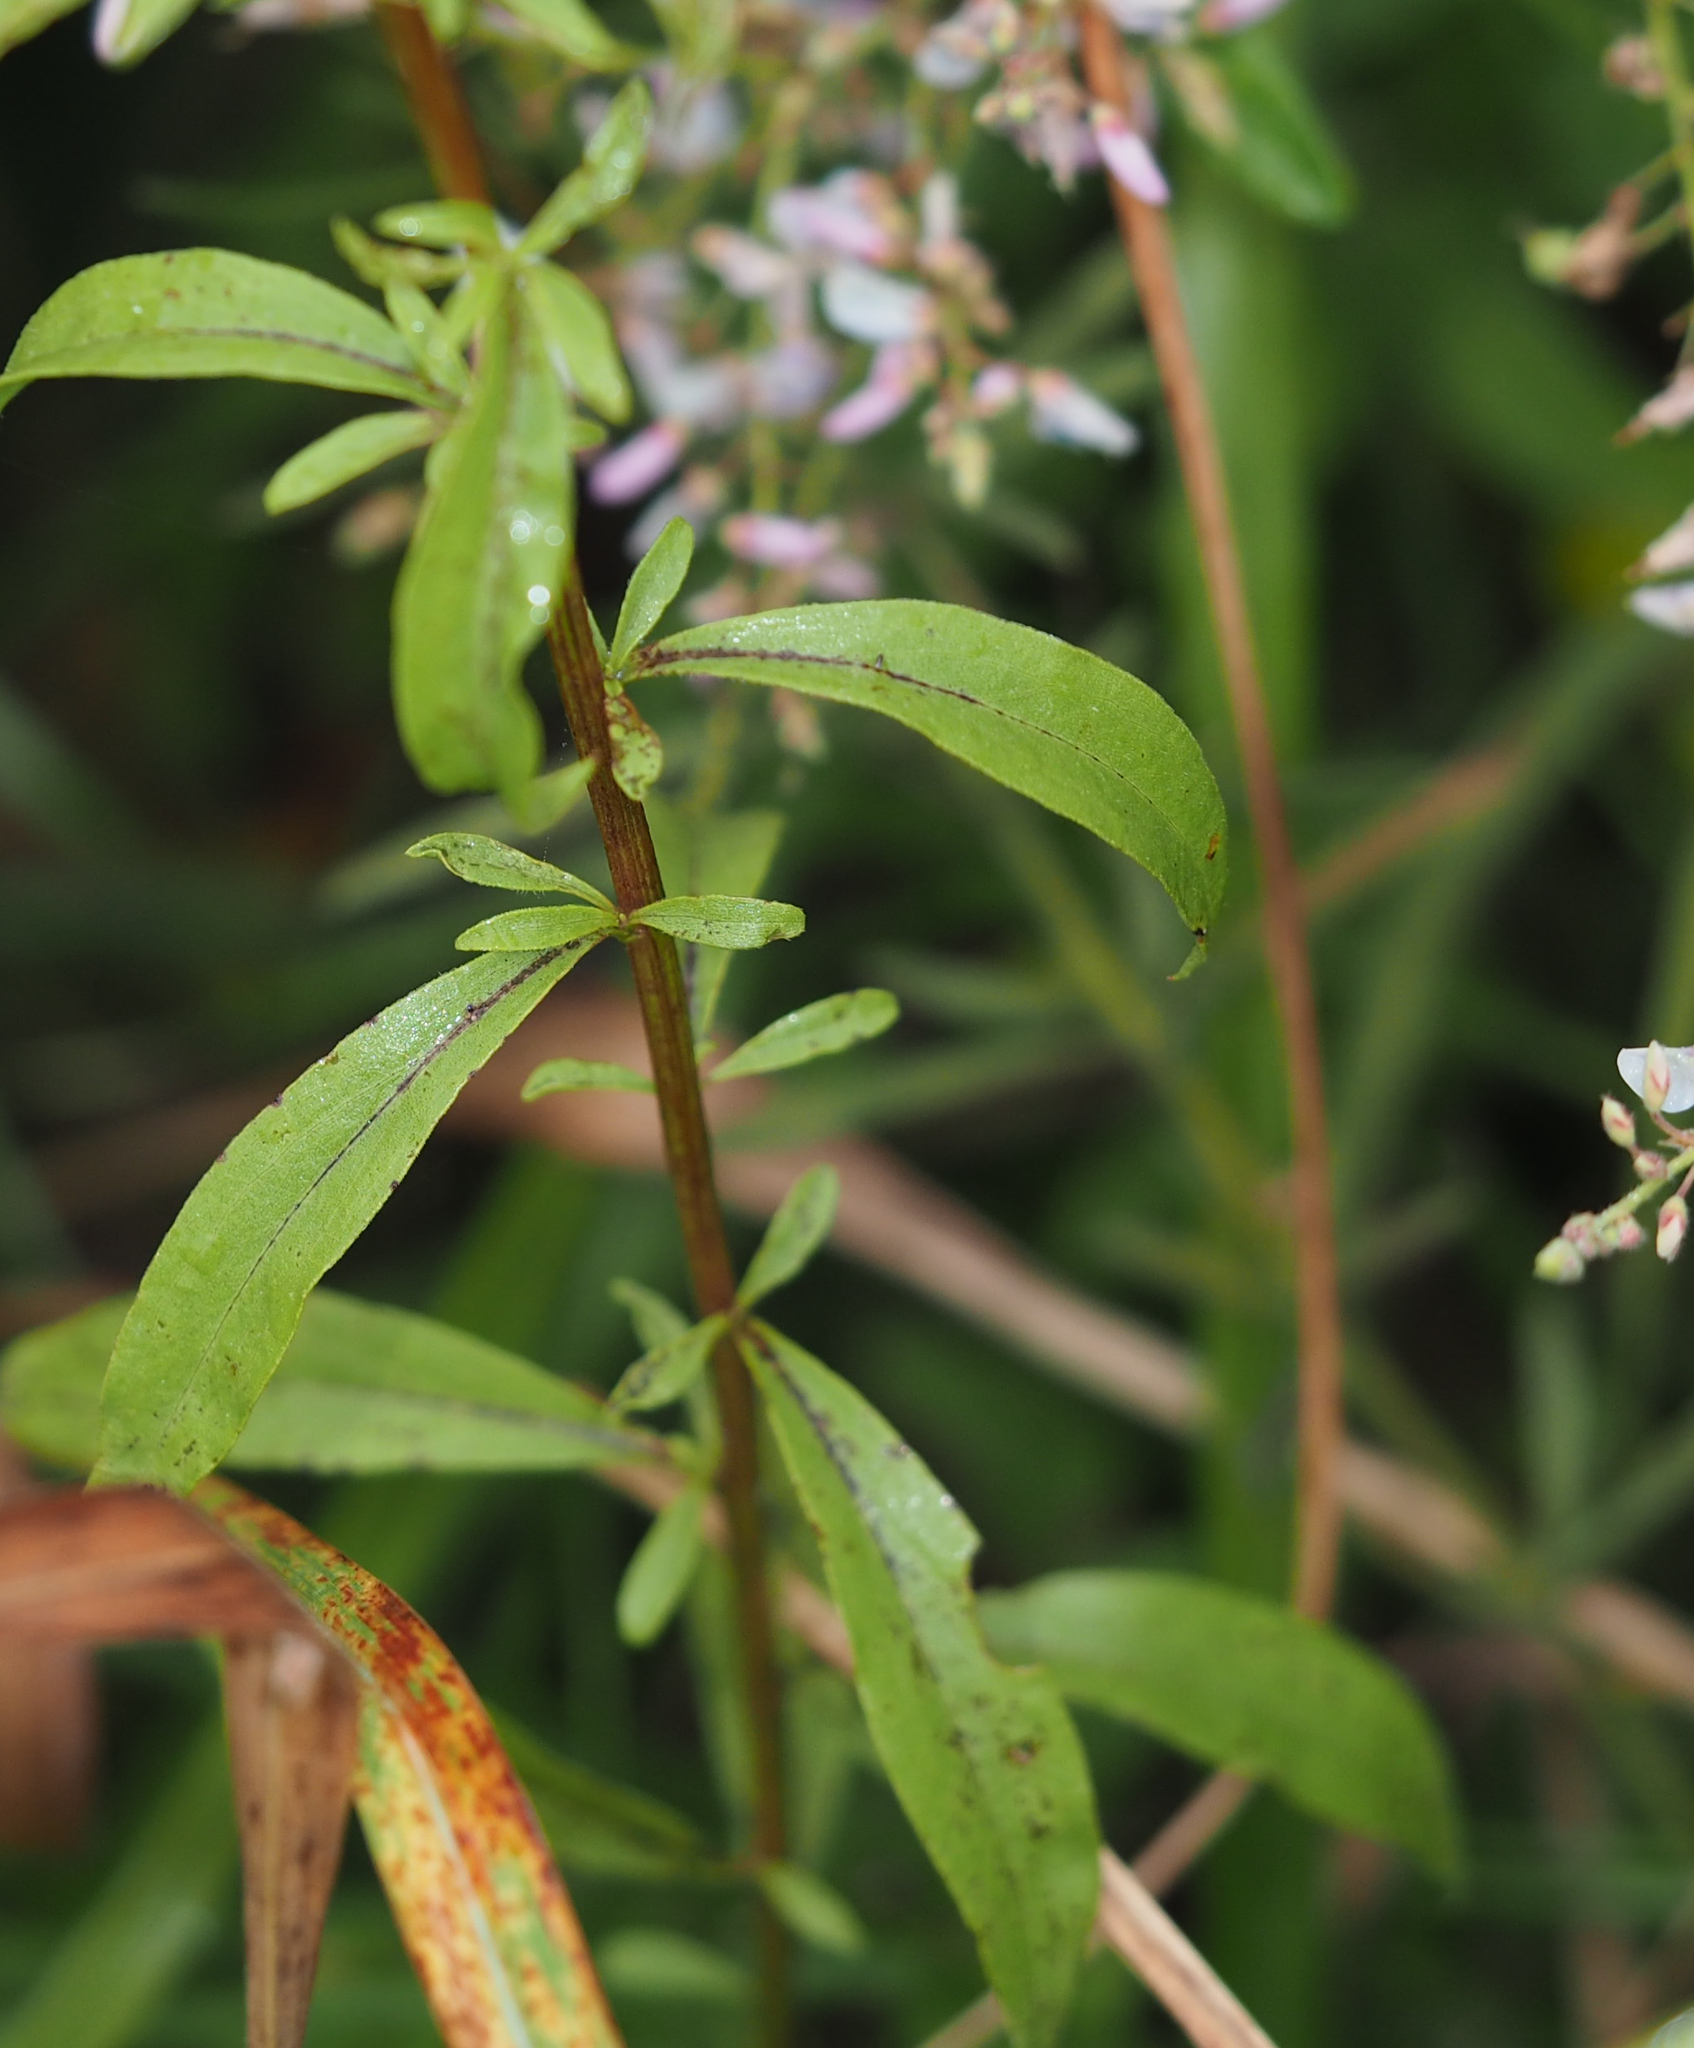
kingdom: Plantae
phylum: Tracheophyta
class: Magnoliopsida
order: Asterales
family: Asteraceae
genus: Solidago
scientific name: Solidago juncea
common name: Early goldenrod
